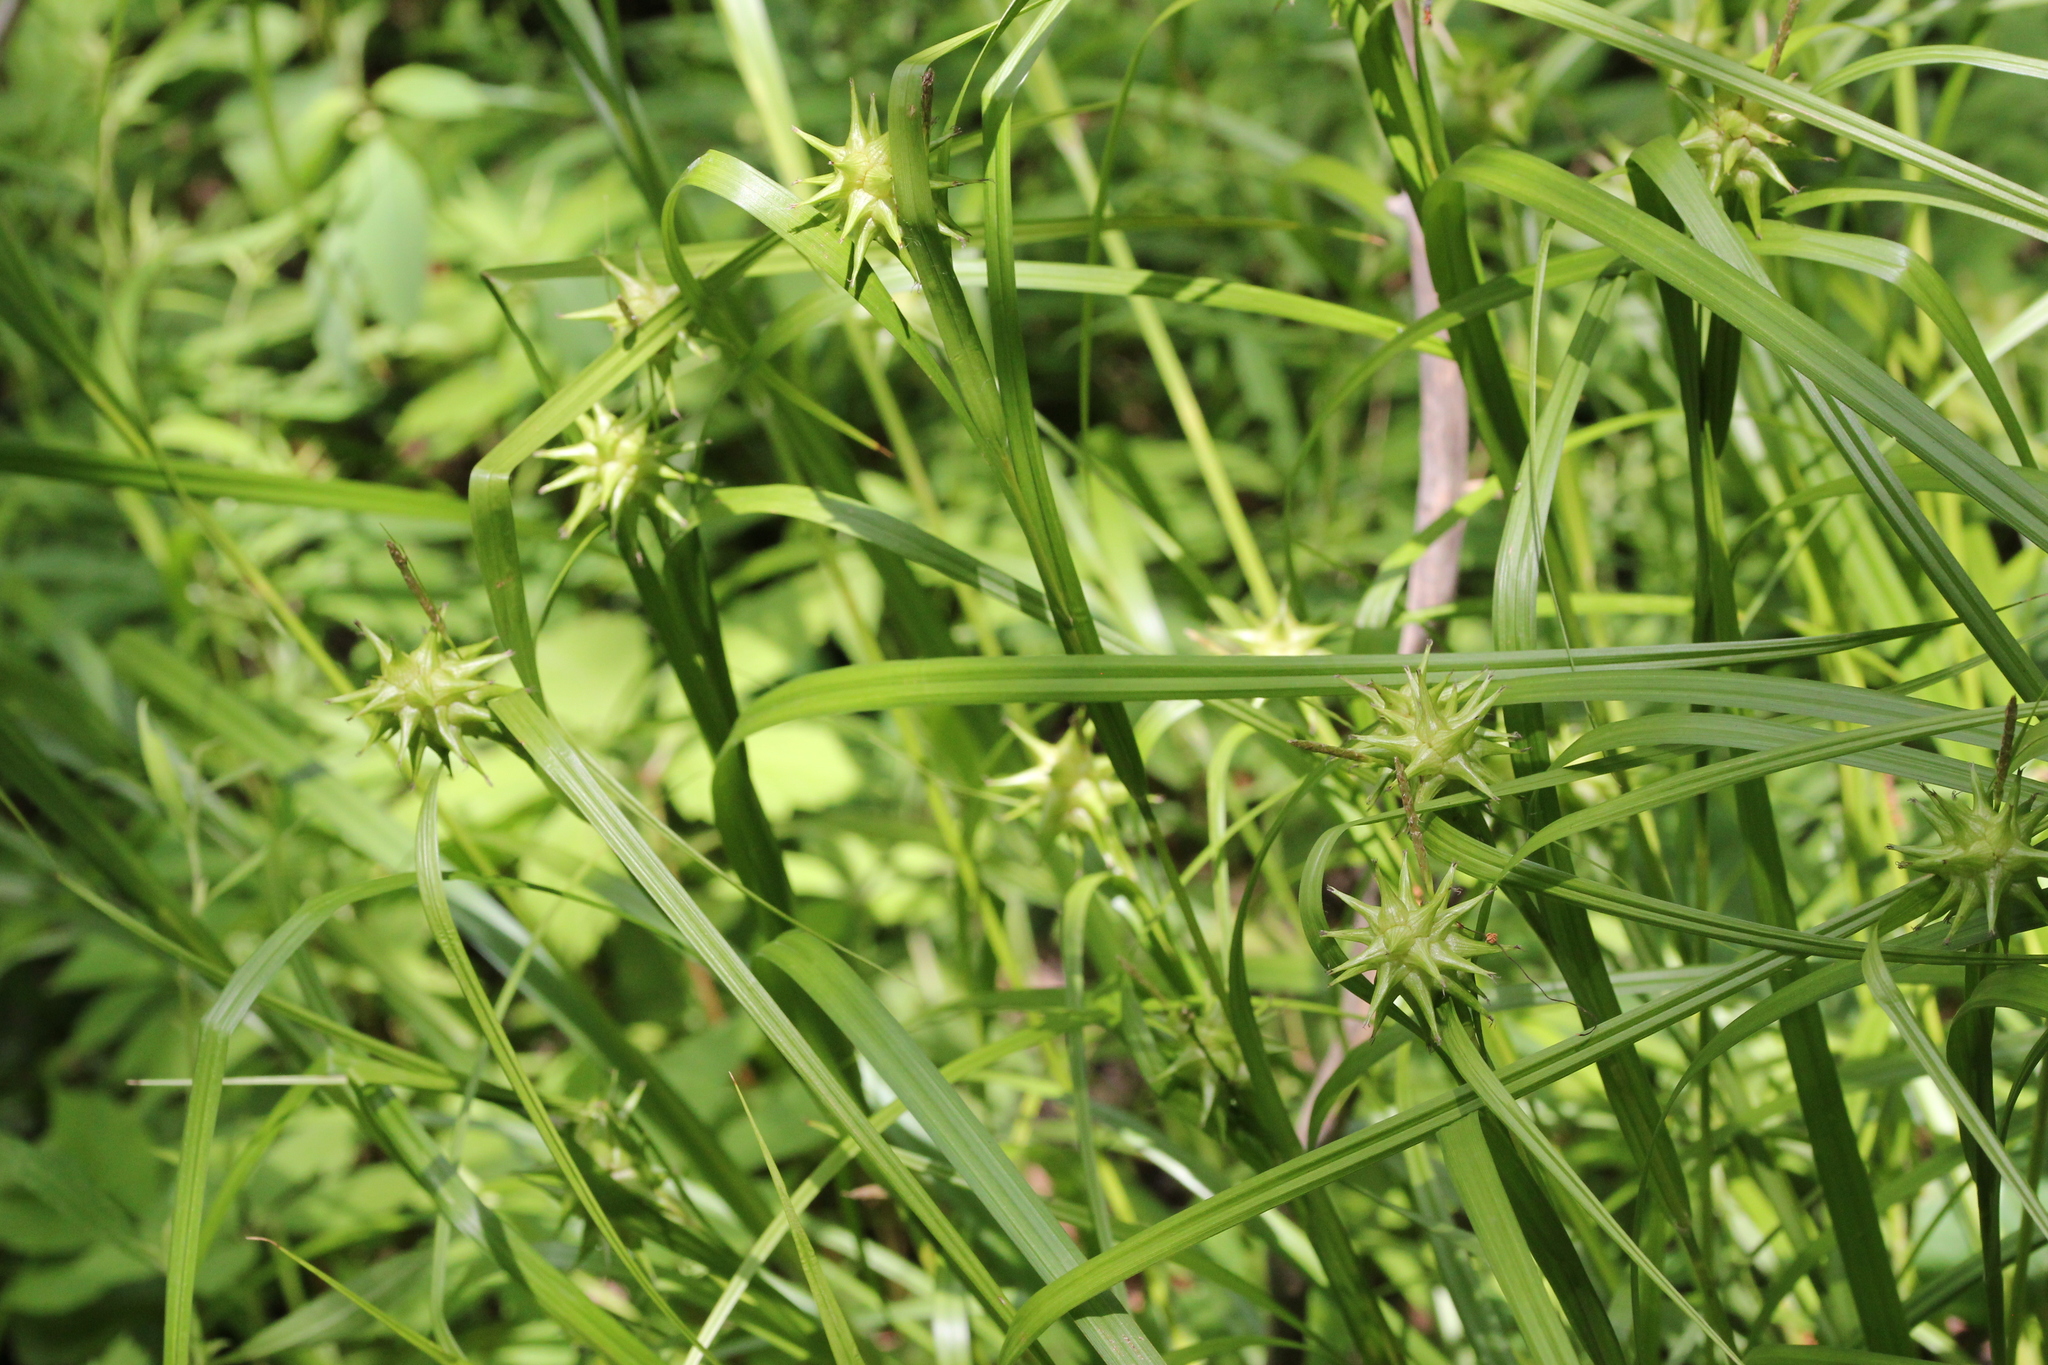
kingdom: Plantae
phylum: Tracheophyta
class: Liliopsida
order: Poales
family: Cyperaceae
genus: Carex
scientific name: Carex grayi
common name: Asa gray's sedge
